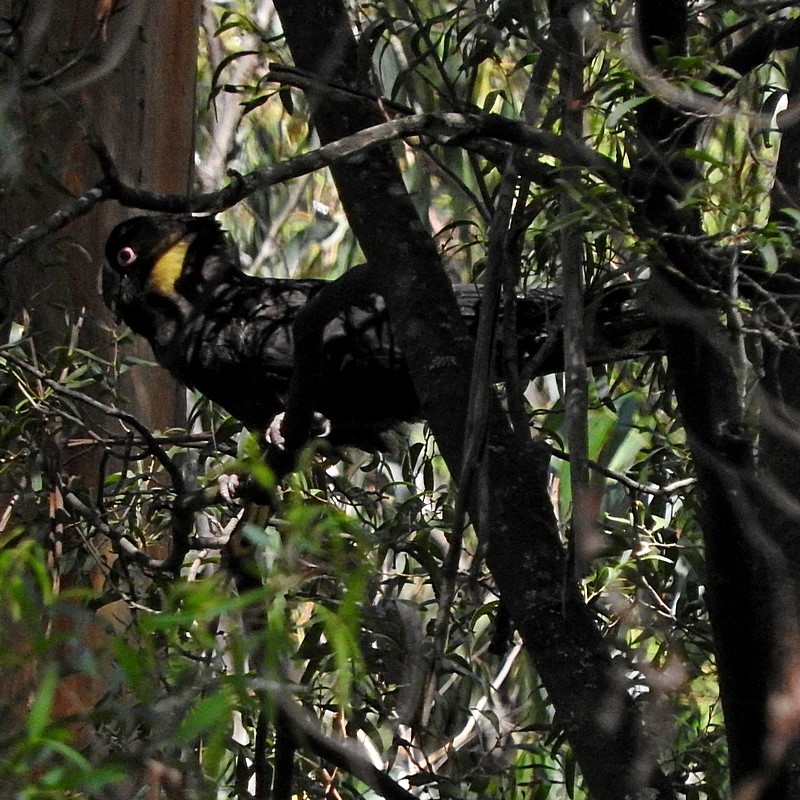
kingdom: Animalia
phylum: Chordata
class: Aves
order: Psittaciformes
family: Cacatuidae
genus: Zanda
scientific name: Zanda funerea
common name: Yellow-tailed black-cockatoo
